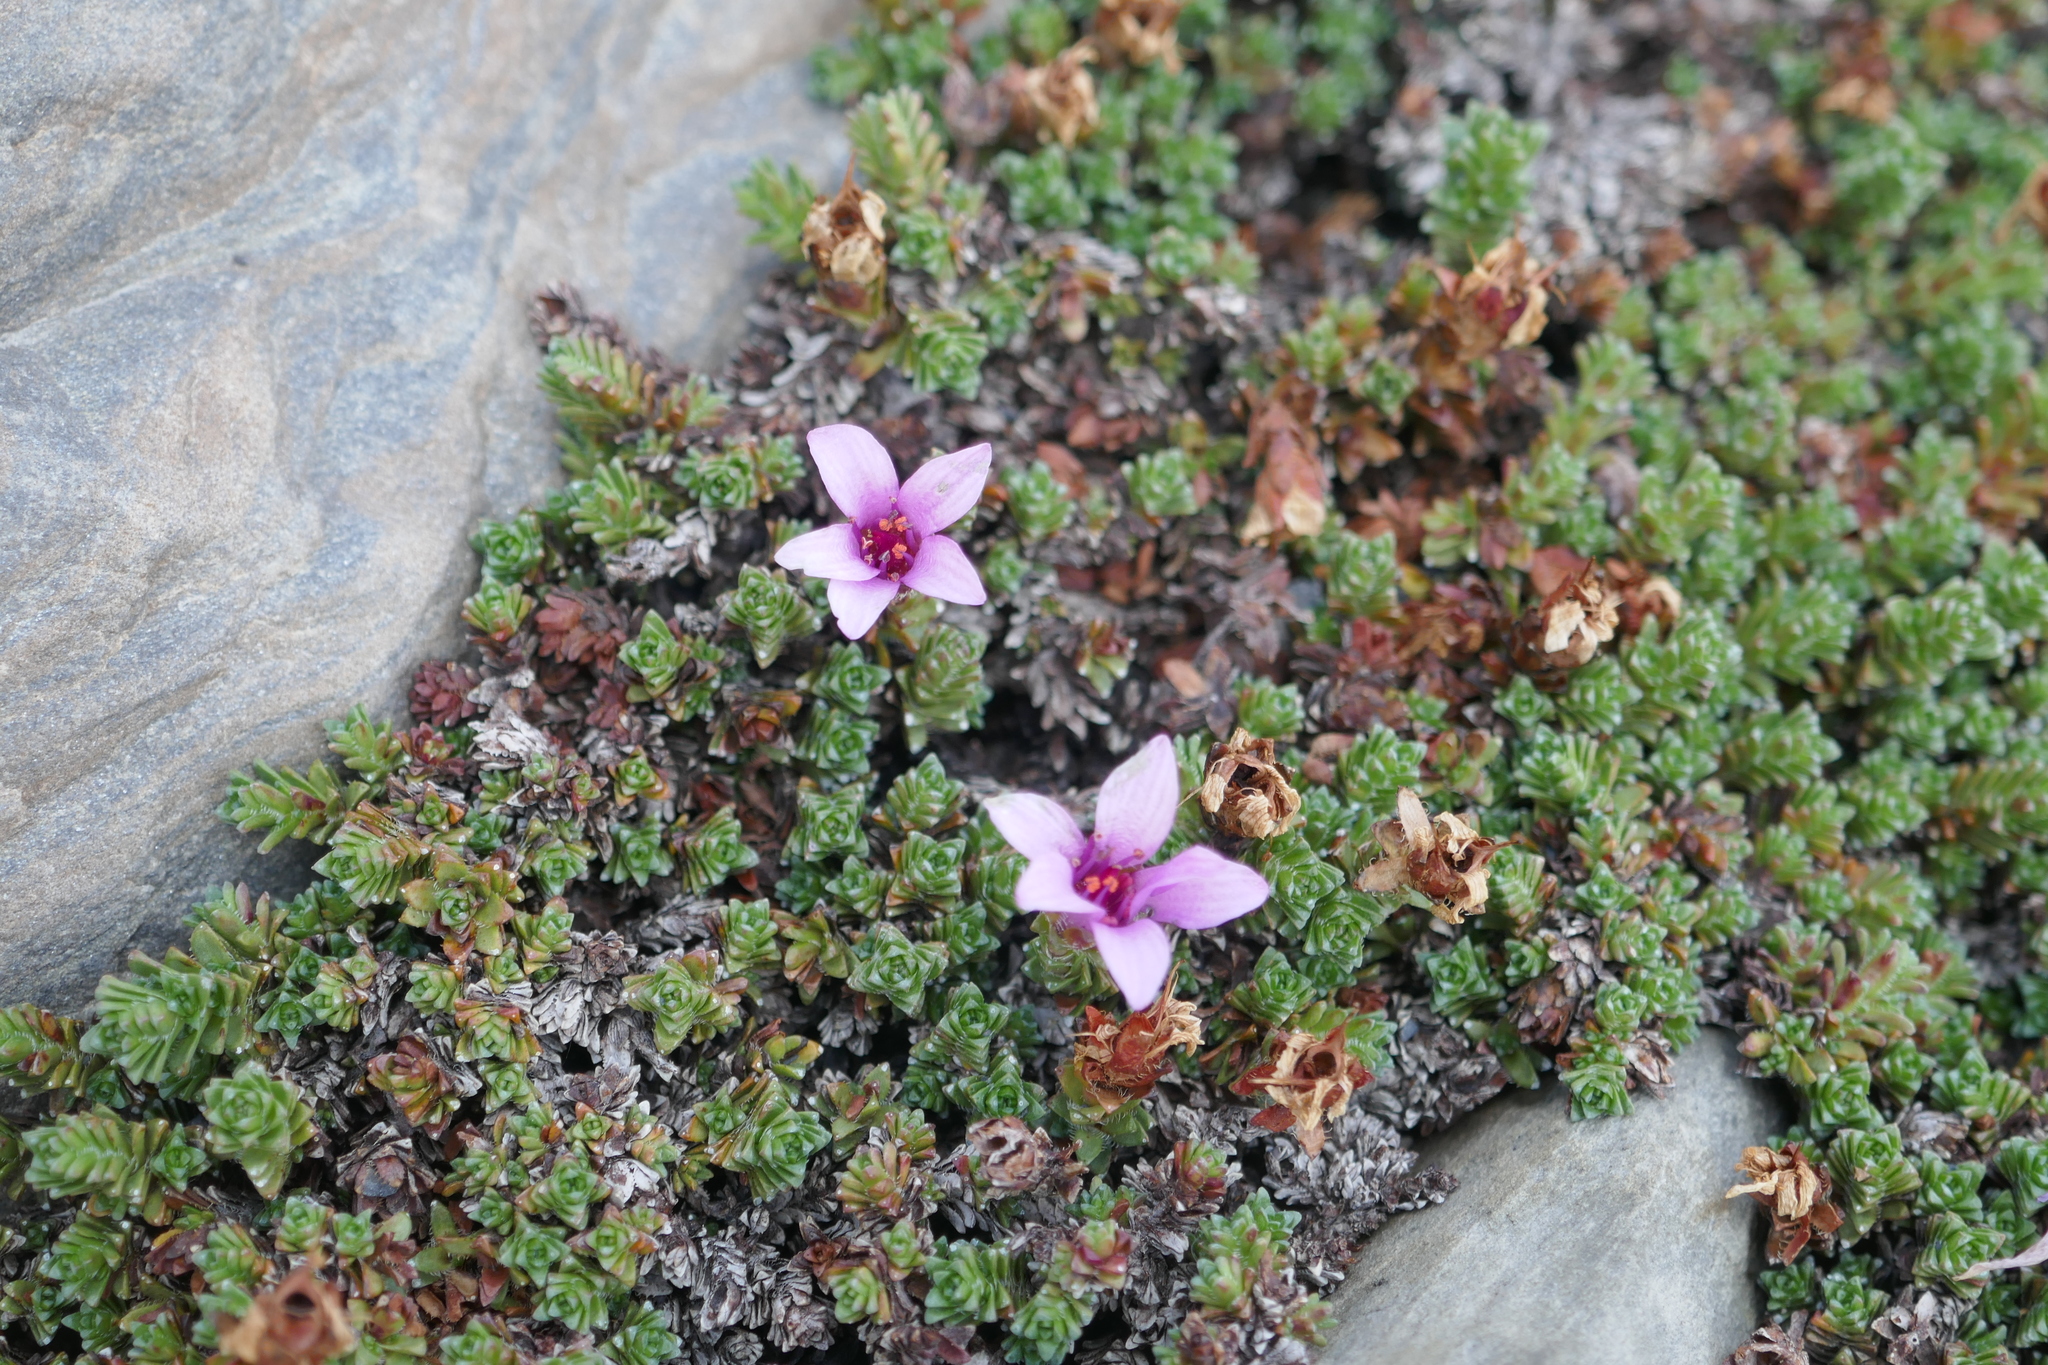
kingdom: Plantae
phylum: Tracheophyta
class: Magnoliopsida
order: Saxifragales
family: Saxifragaceae
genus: Saxifraga
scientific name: Saxifraga oppositifolia
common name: Purple saxifrage
